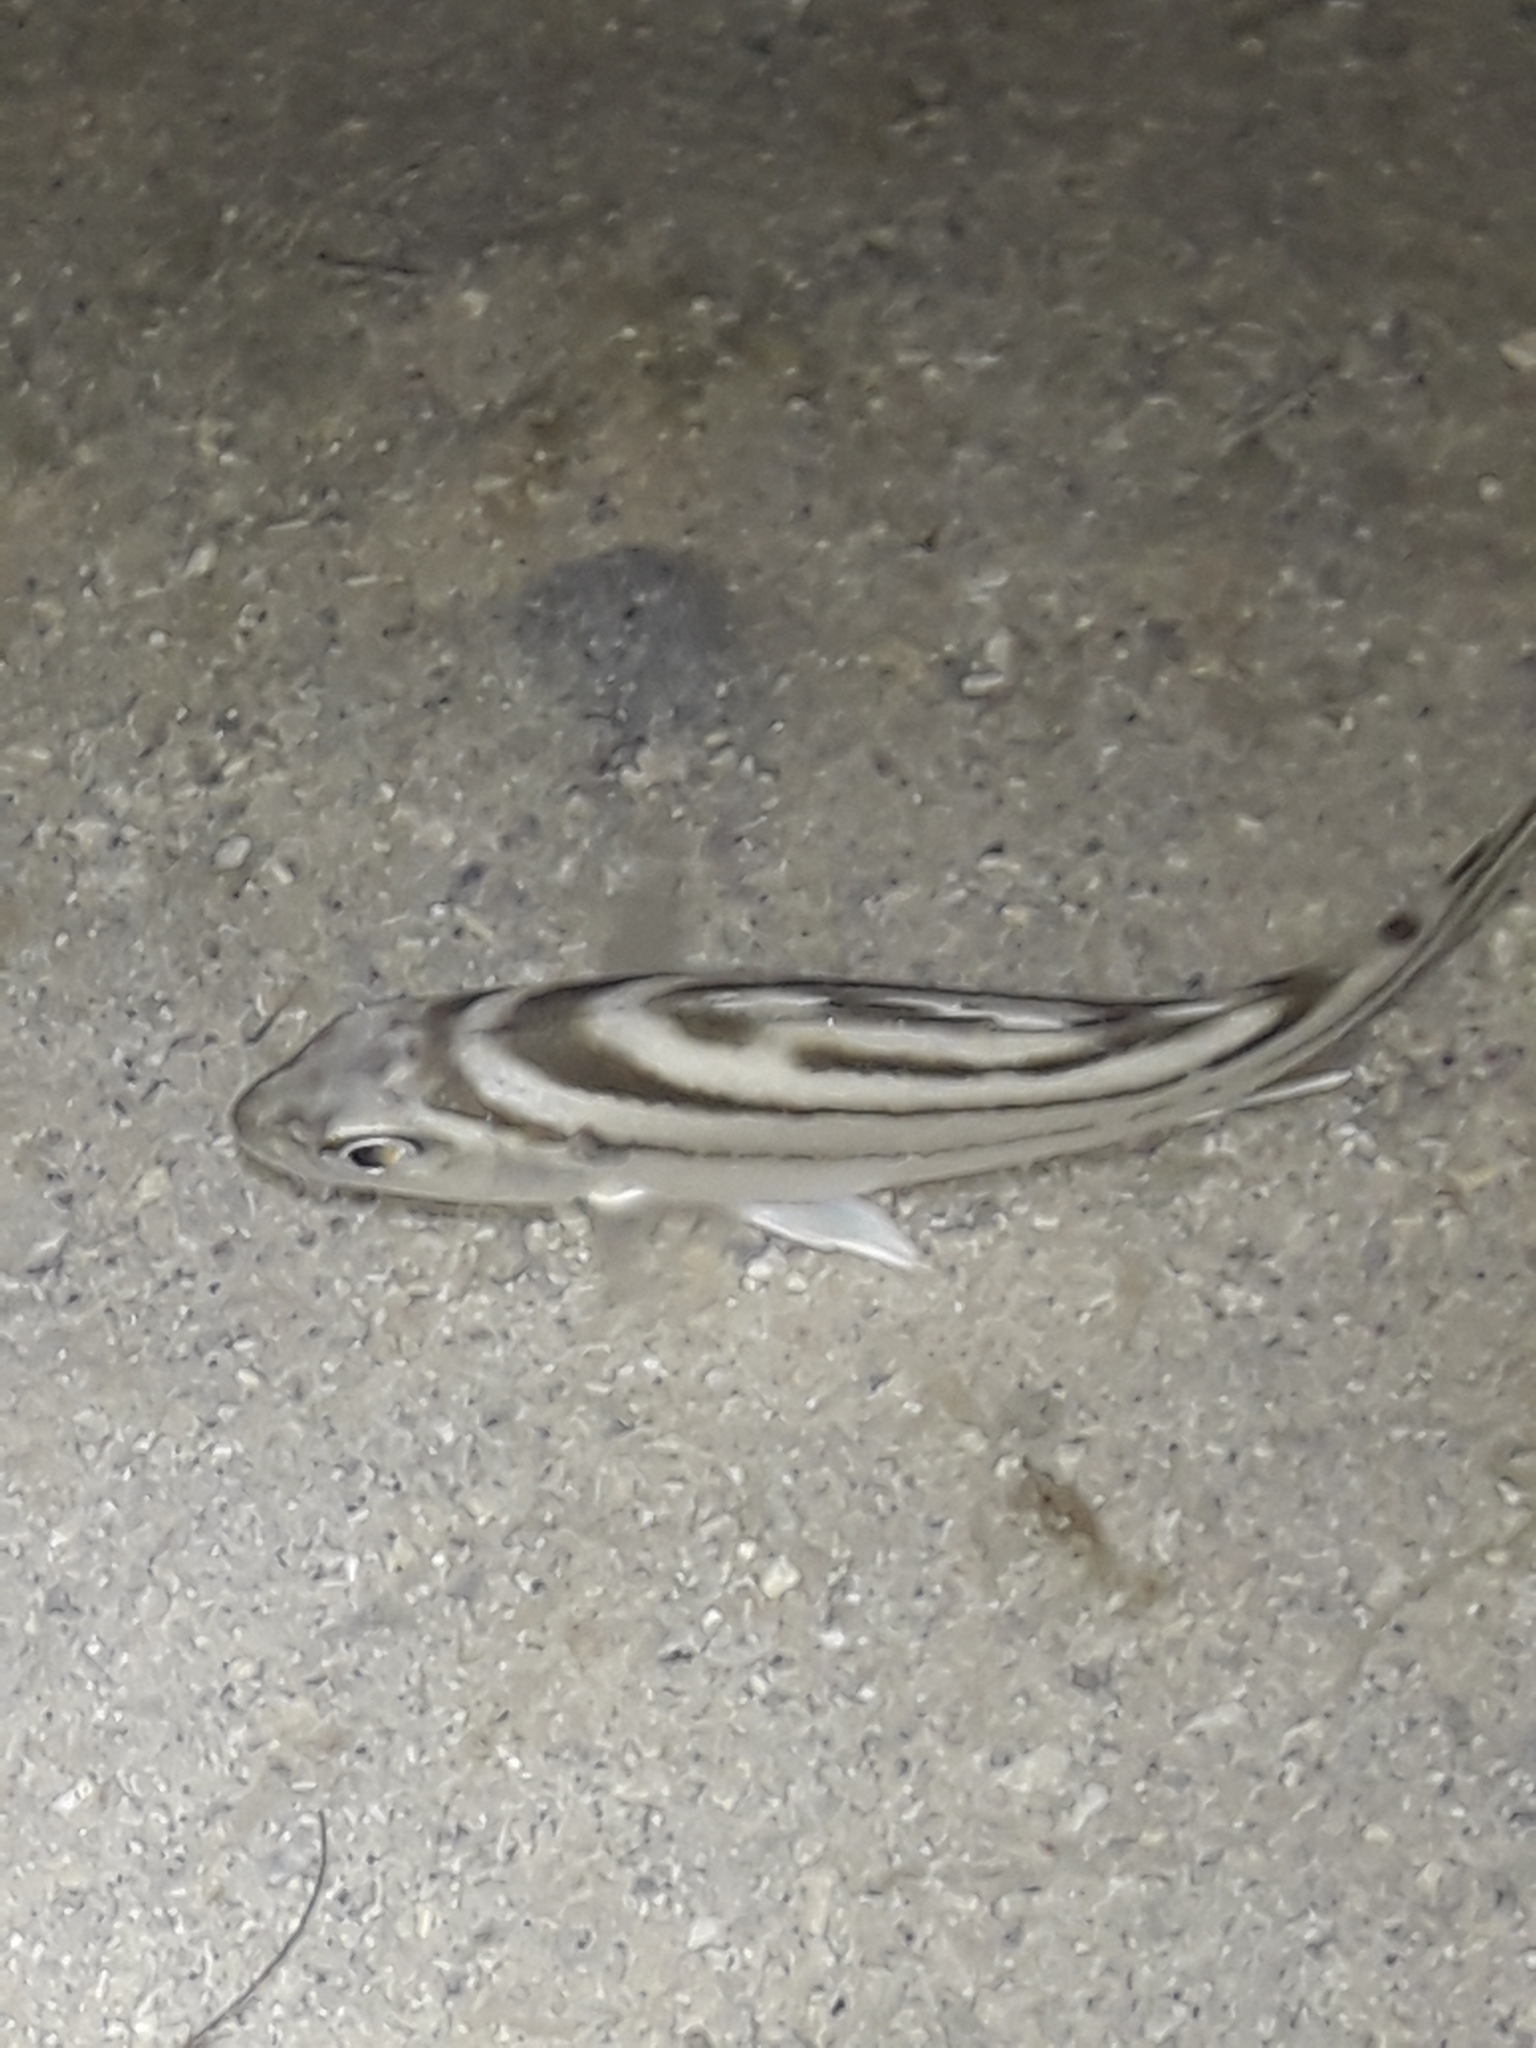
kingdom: Animalia
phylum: Chordata
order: Perciformes
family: Terapontidae
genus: Terapon
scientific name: Terapon jarbua
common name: Jarbua terapon
